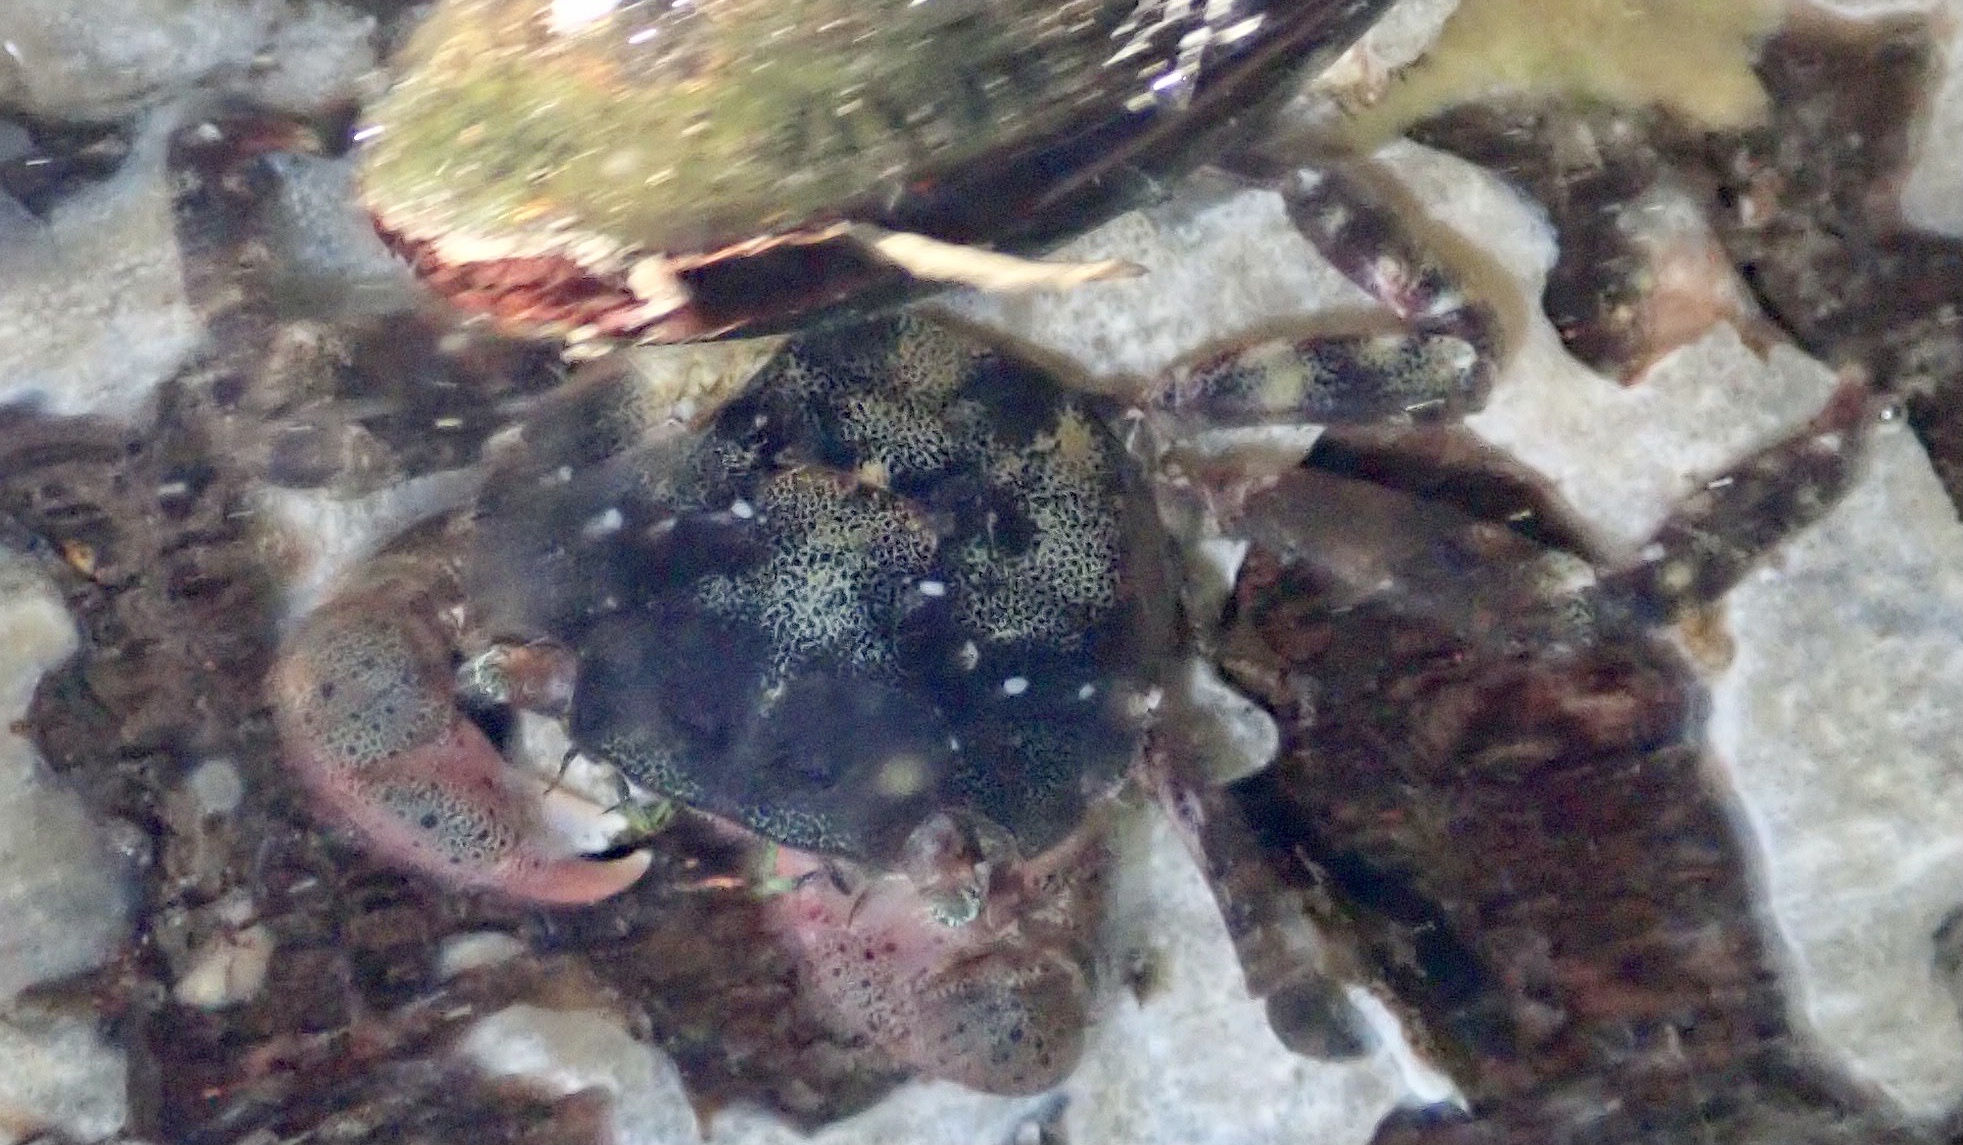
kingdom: Animalia
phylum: Arthropoda
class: Malacostraca
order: Decapoda
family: Varunidae
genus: Hemigrapsus
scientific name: Hemigrapsus sanguineus
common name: Asian shore crab
